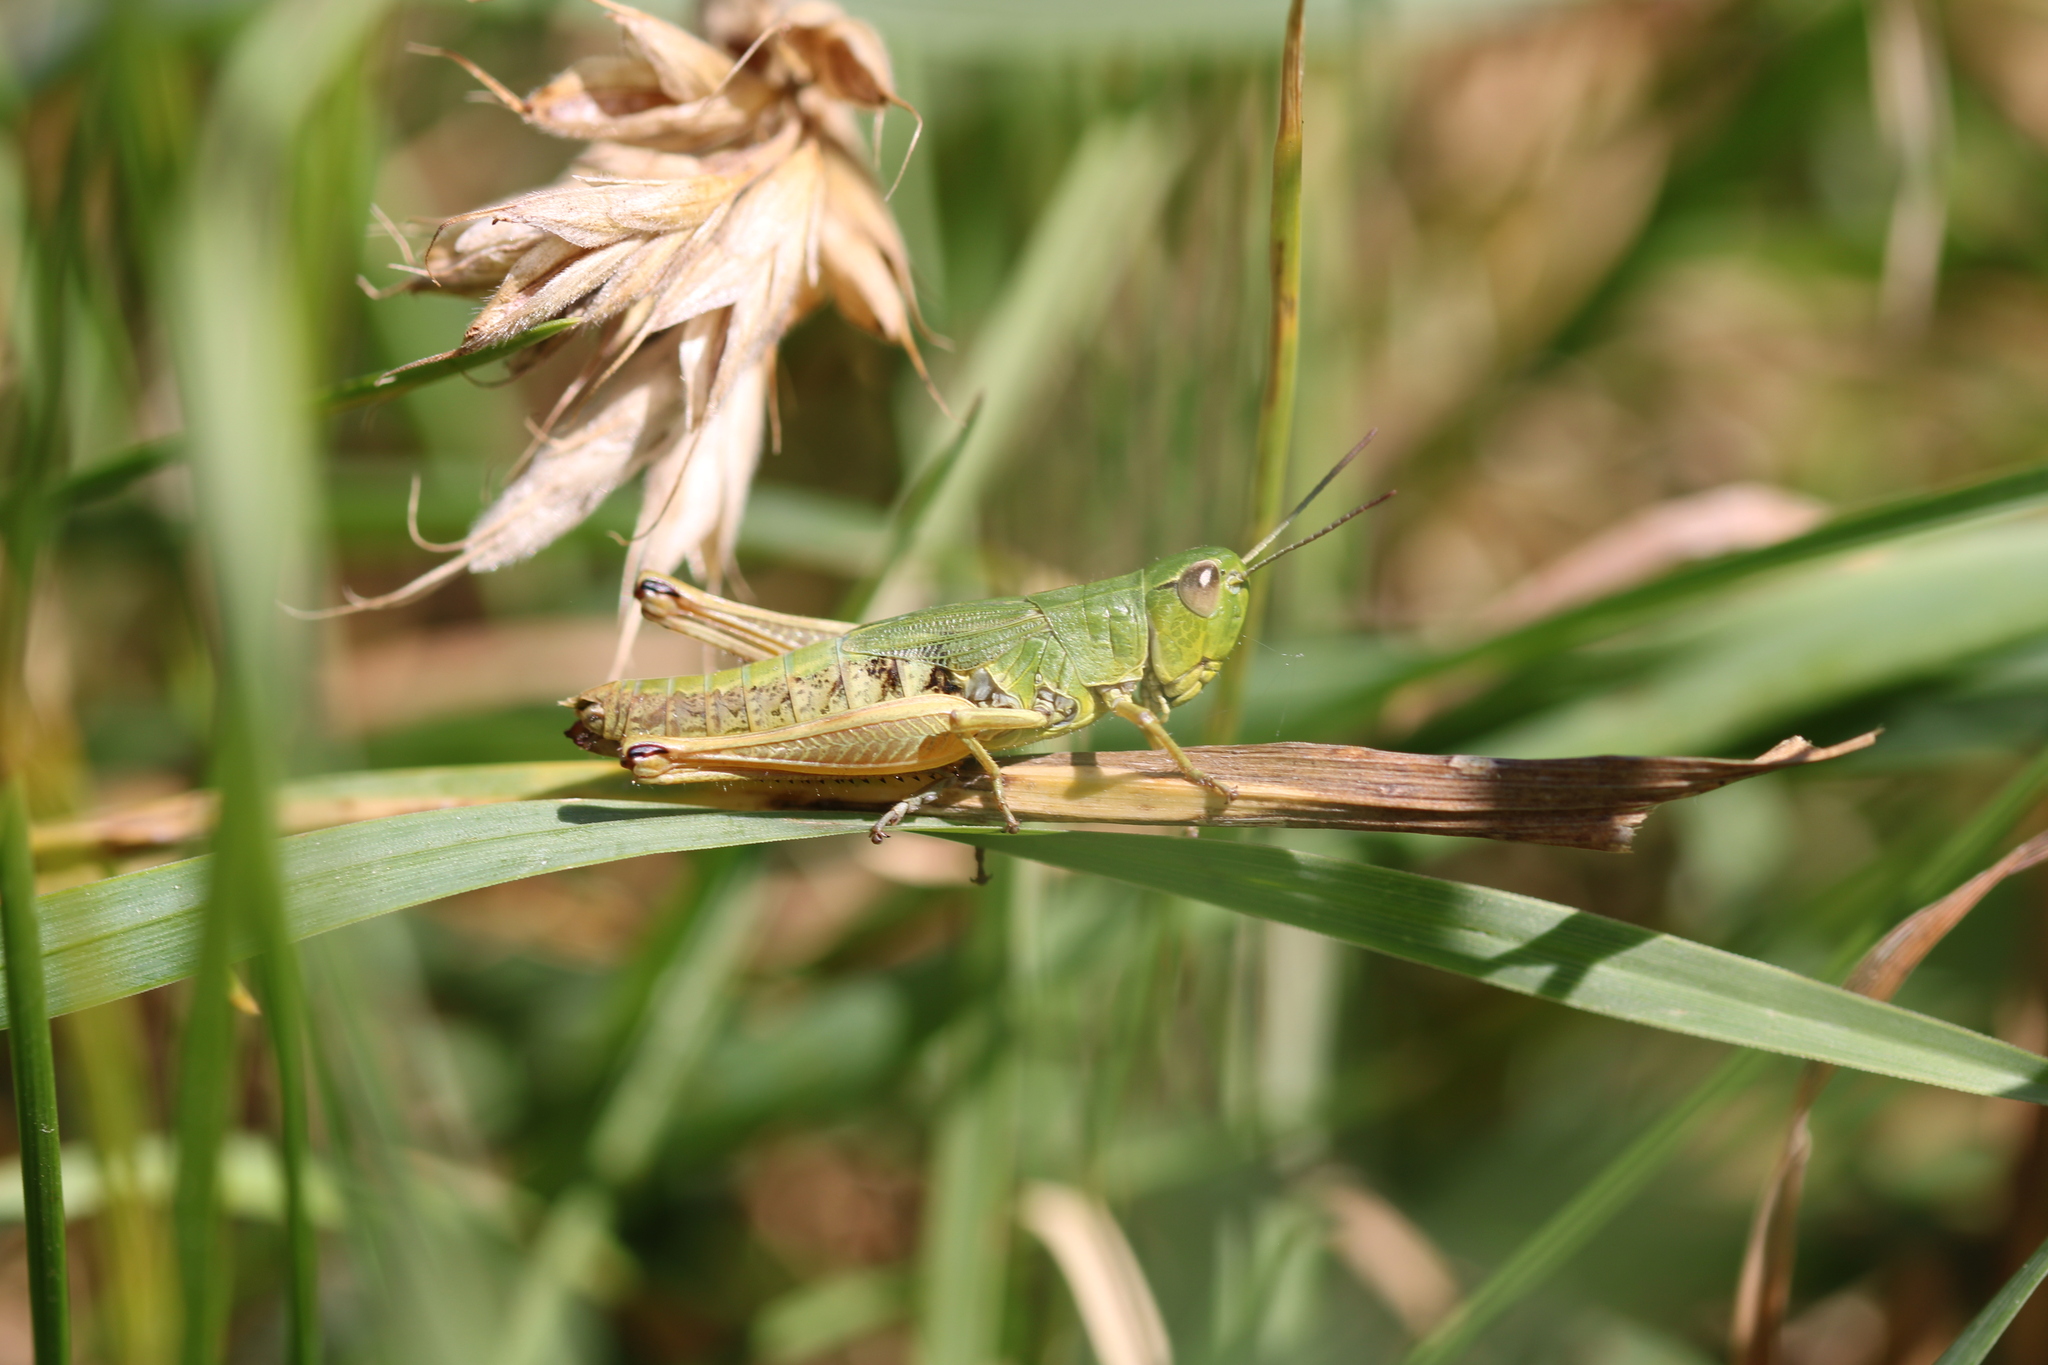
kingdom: Animalia
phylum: Arthropoda
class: Insecta
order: Orthoptera
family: Acrididae
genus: Pseudochorthippus
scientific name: Pseudochorthippus parallelus
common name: Meadow grasshopper
